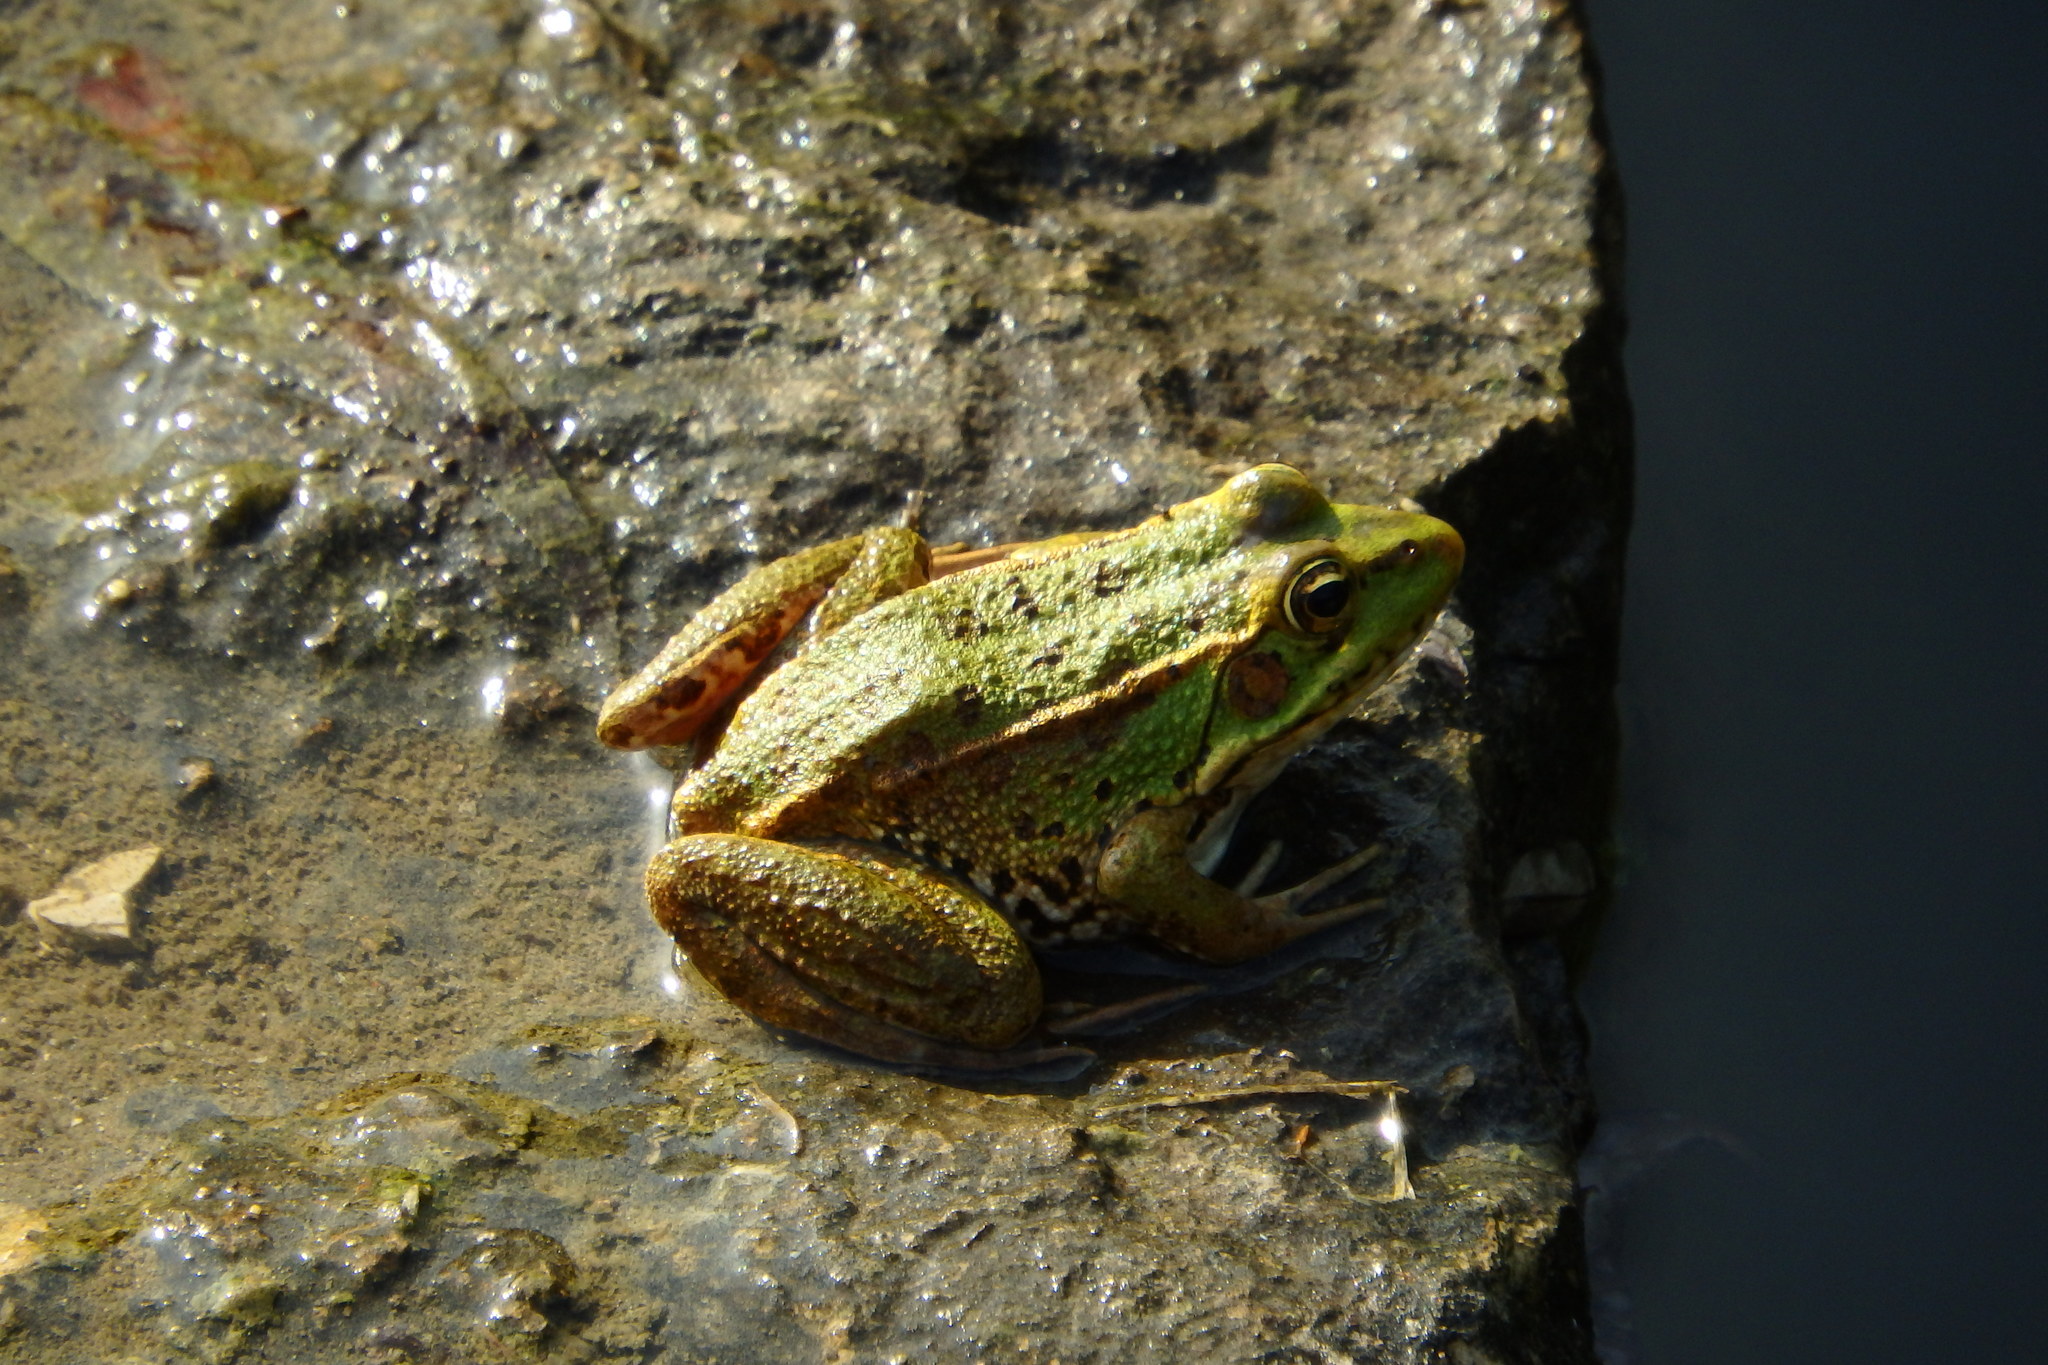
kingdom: Animalia
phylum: Chordata
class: Amphibia
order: Anura
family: Ranidae
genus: Pelophylax
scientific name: Pelophylax perezi
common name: Perez's frog
